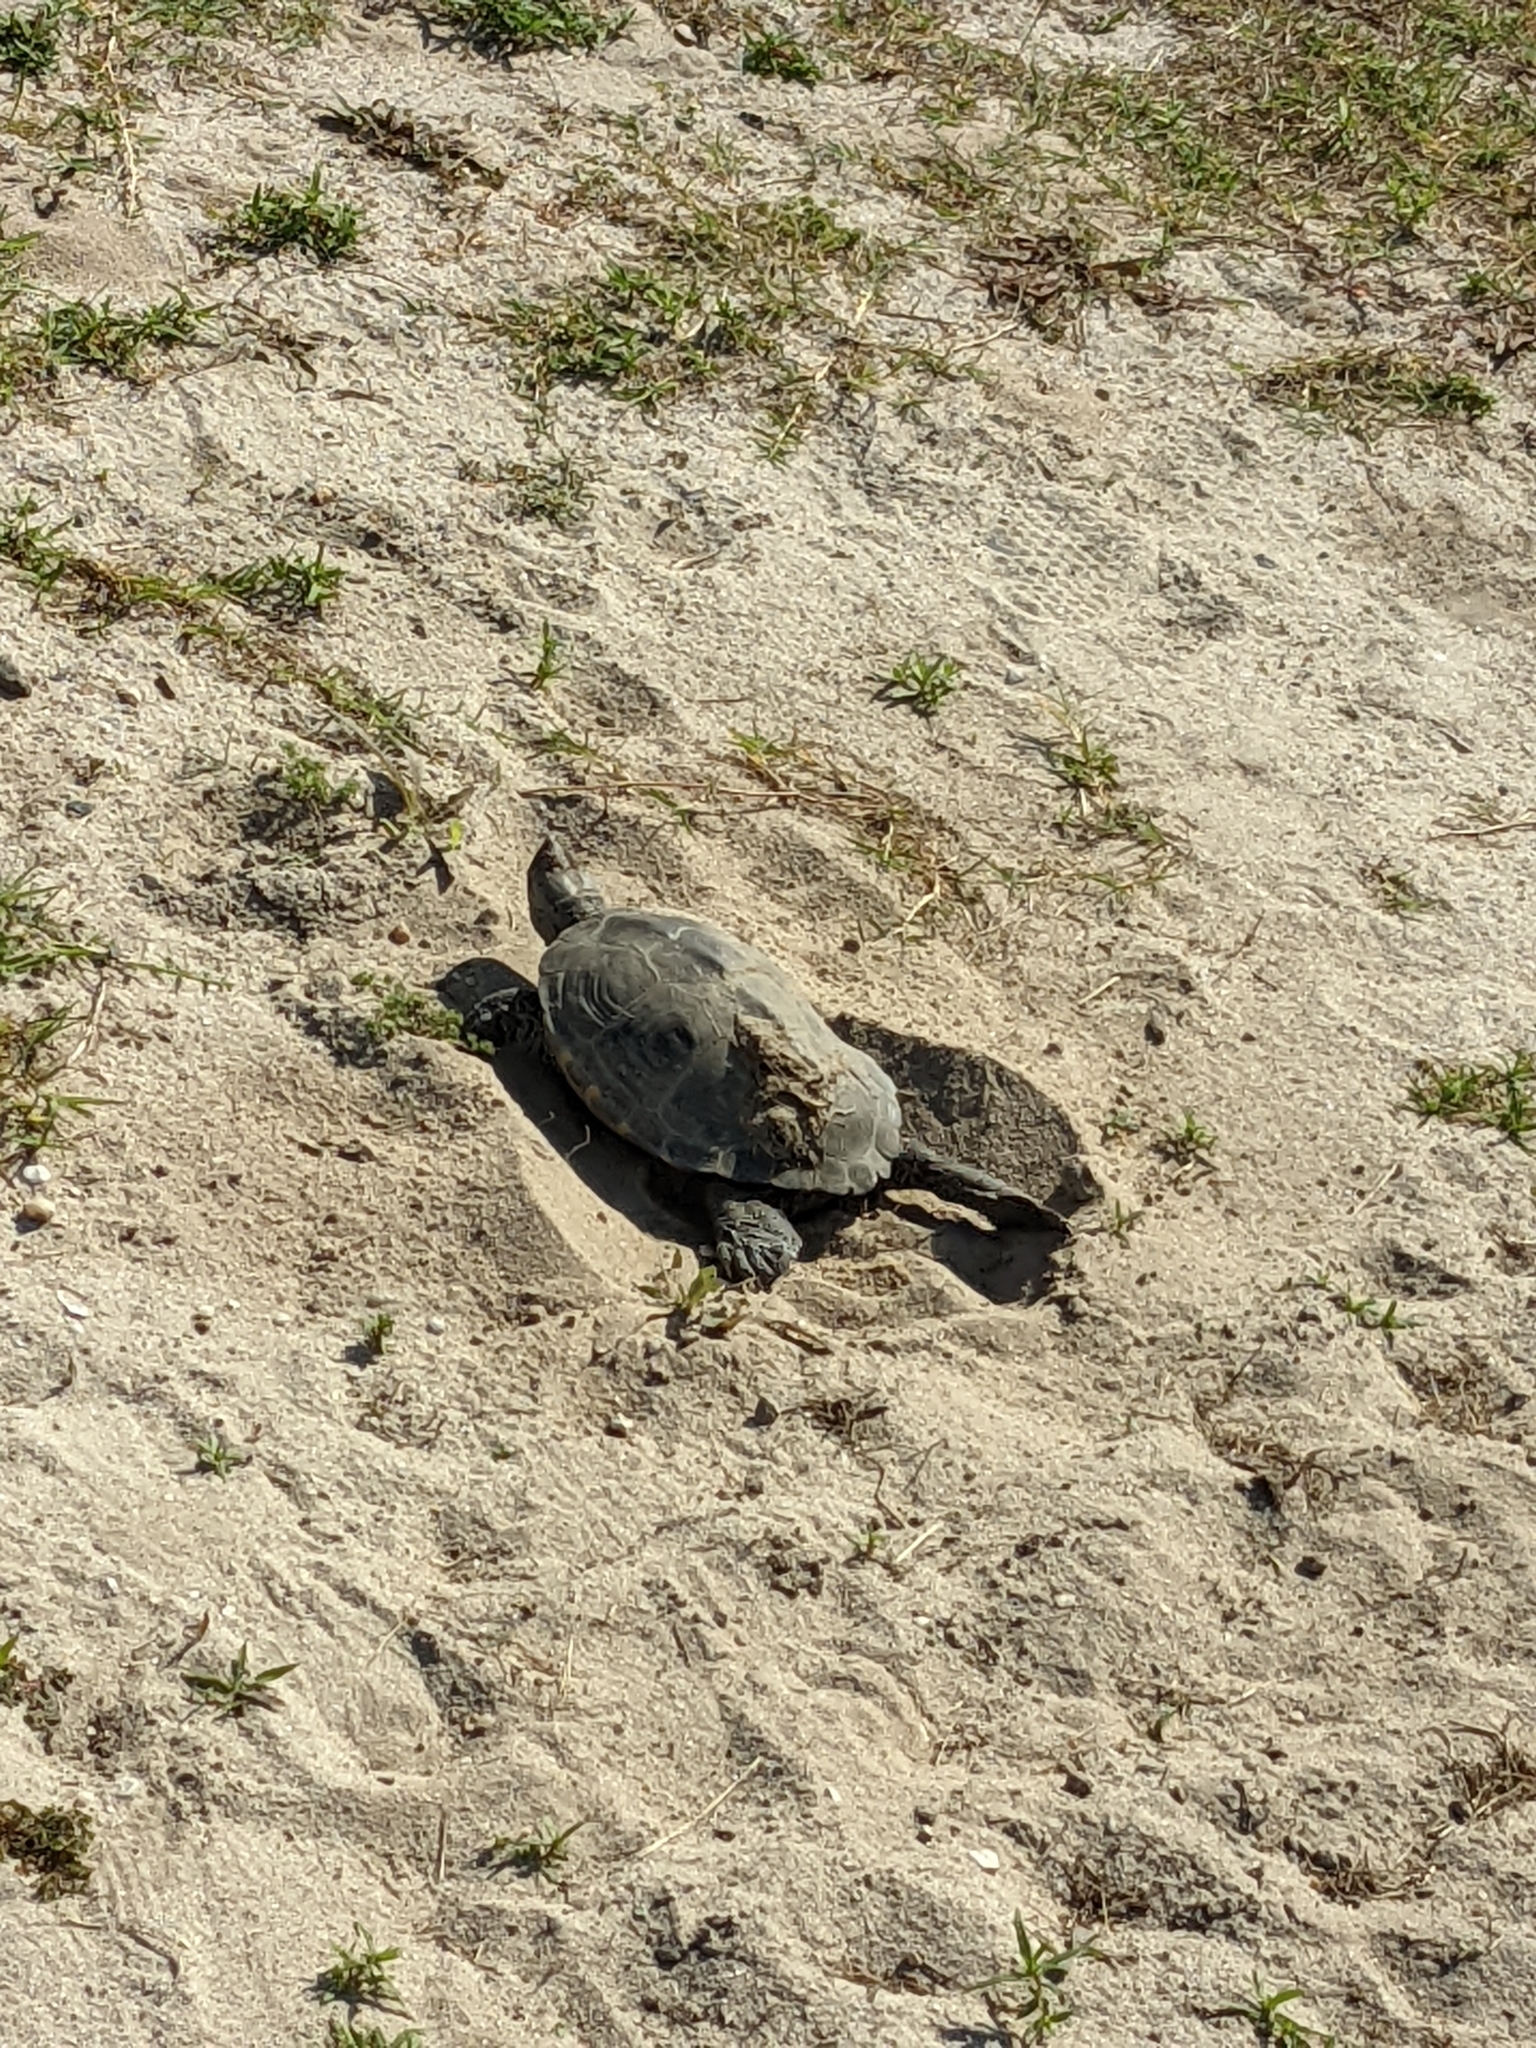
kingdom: Animalia
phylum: Chordata
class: Testudines
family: Emydidae
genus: Malaclemys
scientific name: Malaclemys terrapin
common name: Diamondback terrapin
